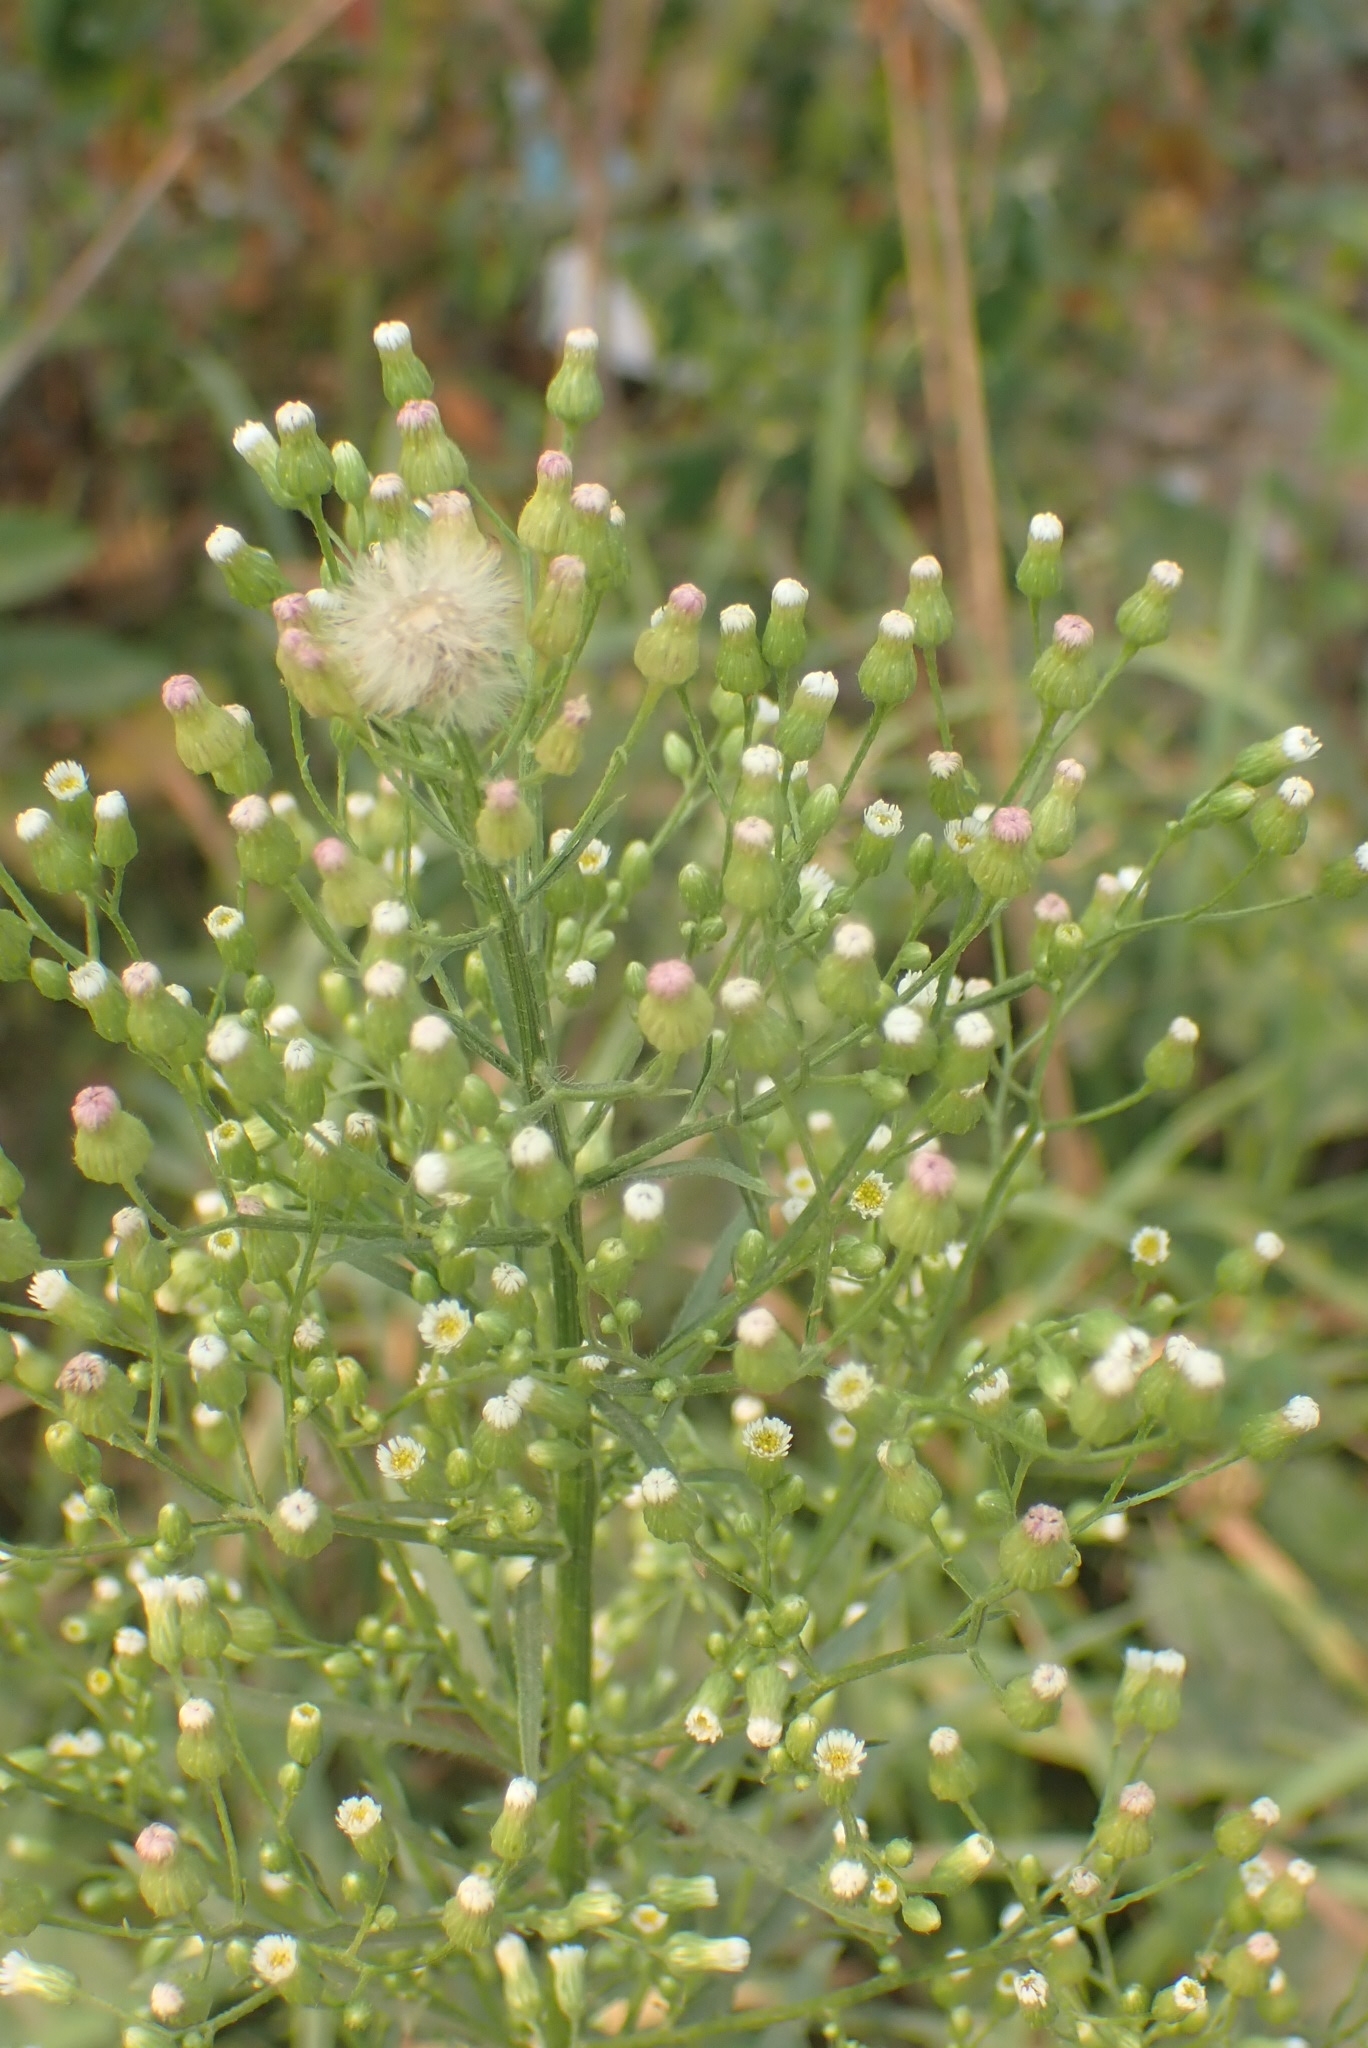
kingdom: Plantae
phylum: Tracheophyta
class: Magnoliopsida
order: Asterales
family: Asteraceae
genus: Erigeron
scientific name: Erigeron canadensis
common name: Canadian fleabane
